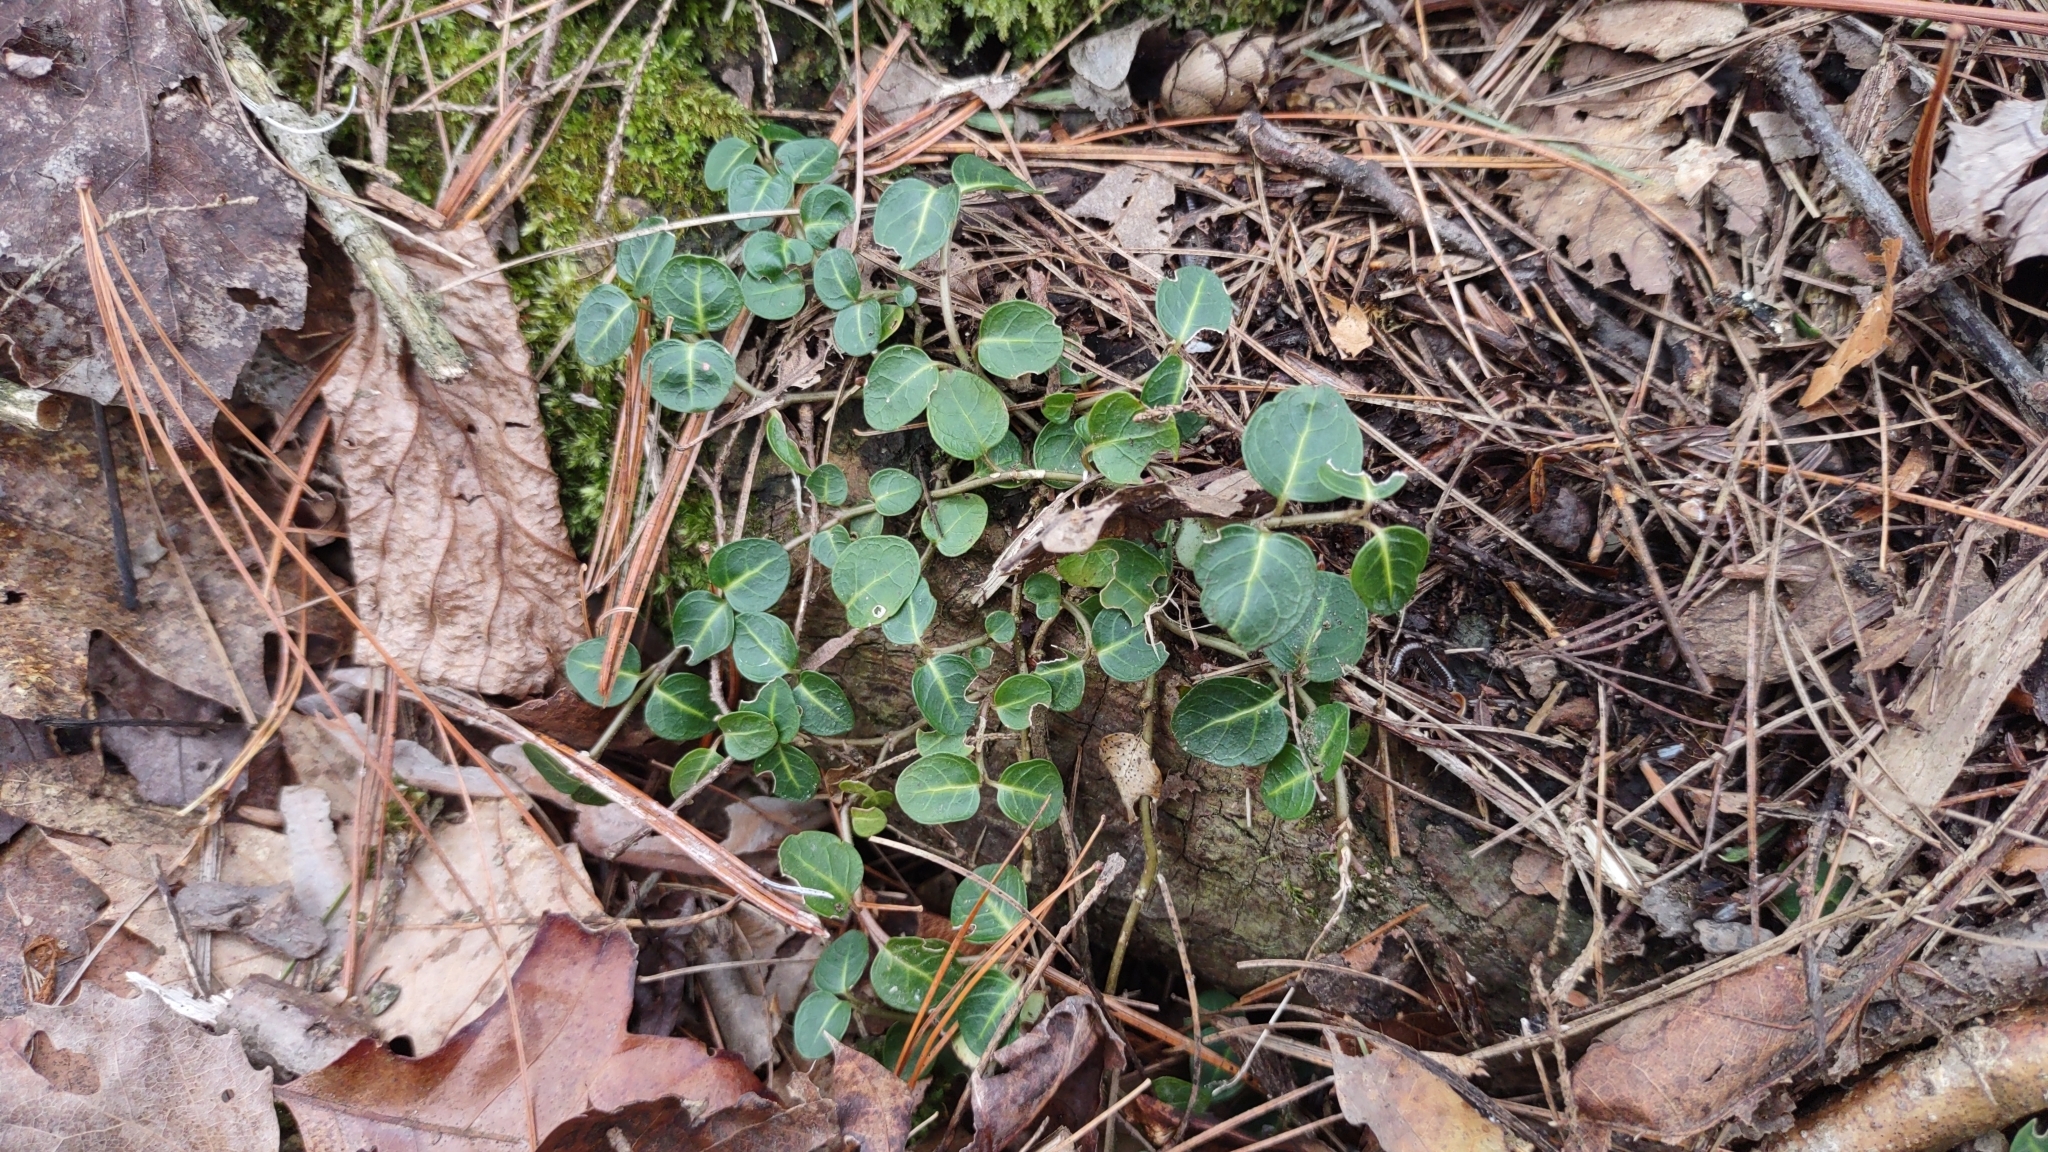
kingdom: Plantae
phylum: Tracheophyta
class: Magnoliopsida
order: Gentianales
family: Rubiaceae
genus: Mitchella
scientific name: Mitchella repens
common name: Partridge-berry
